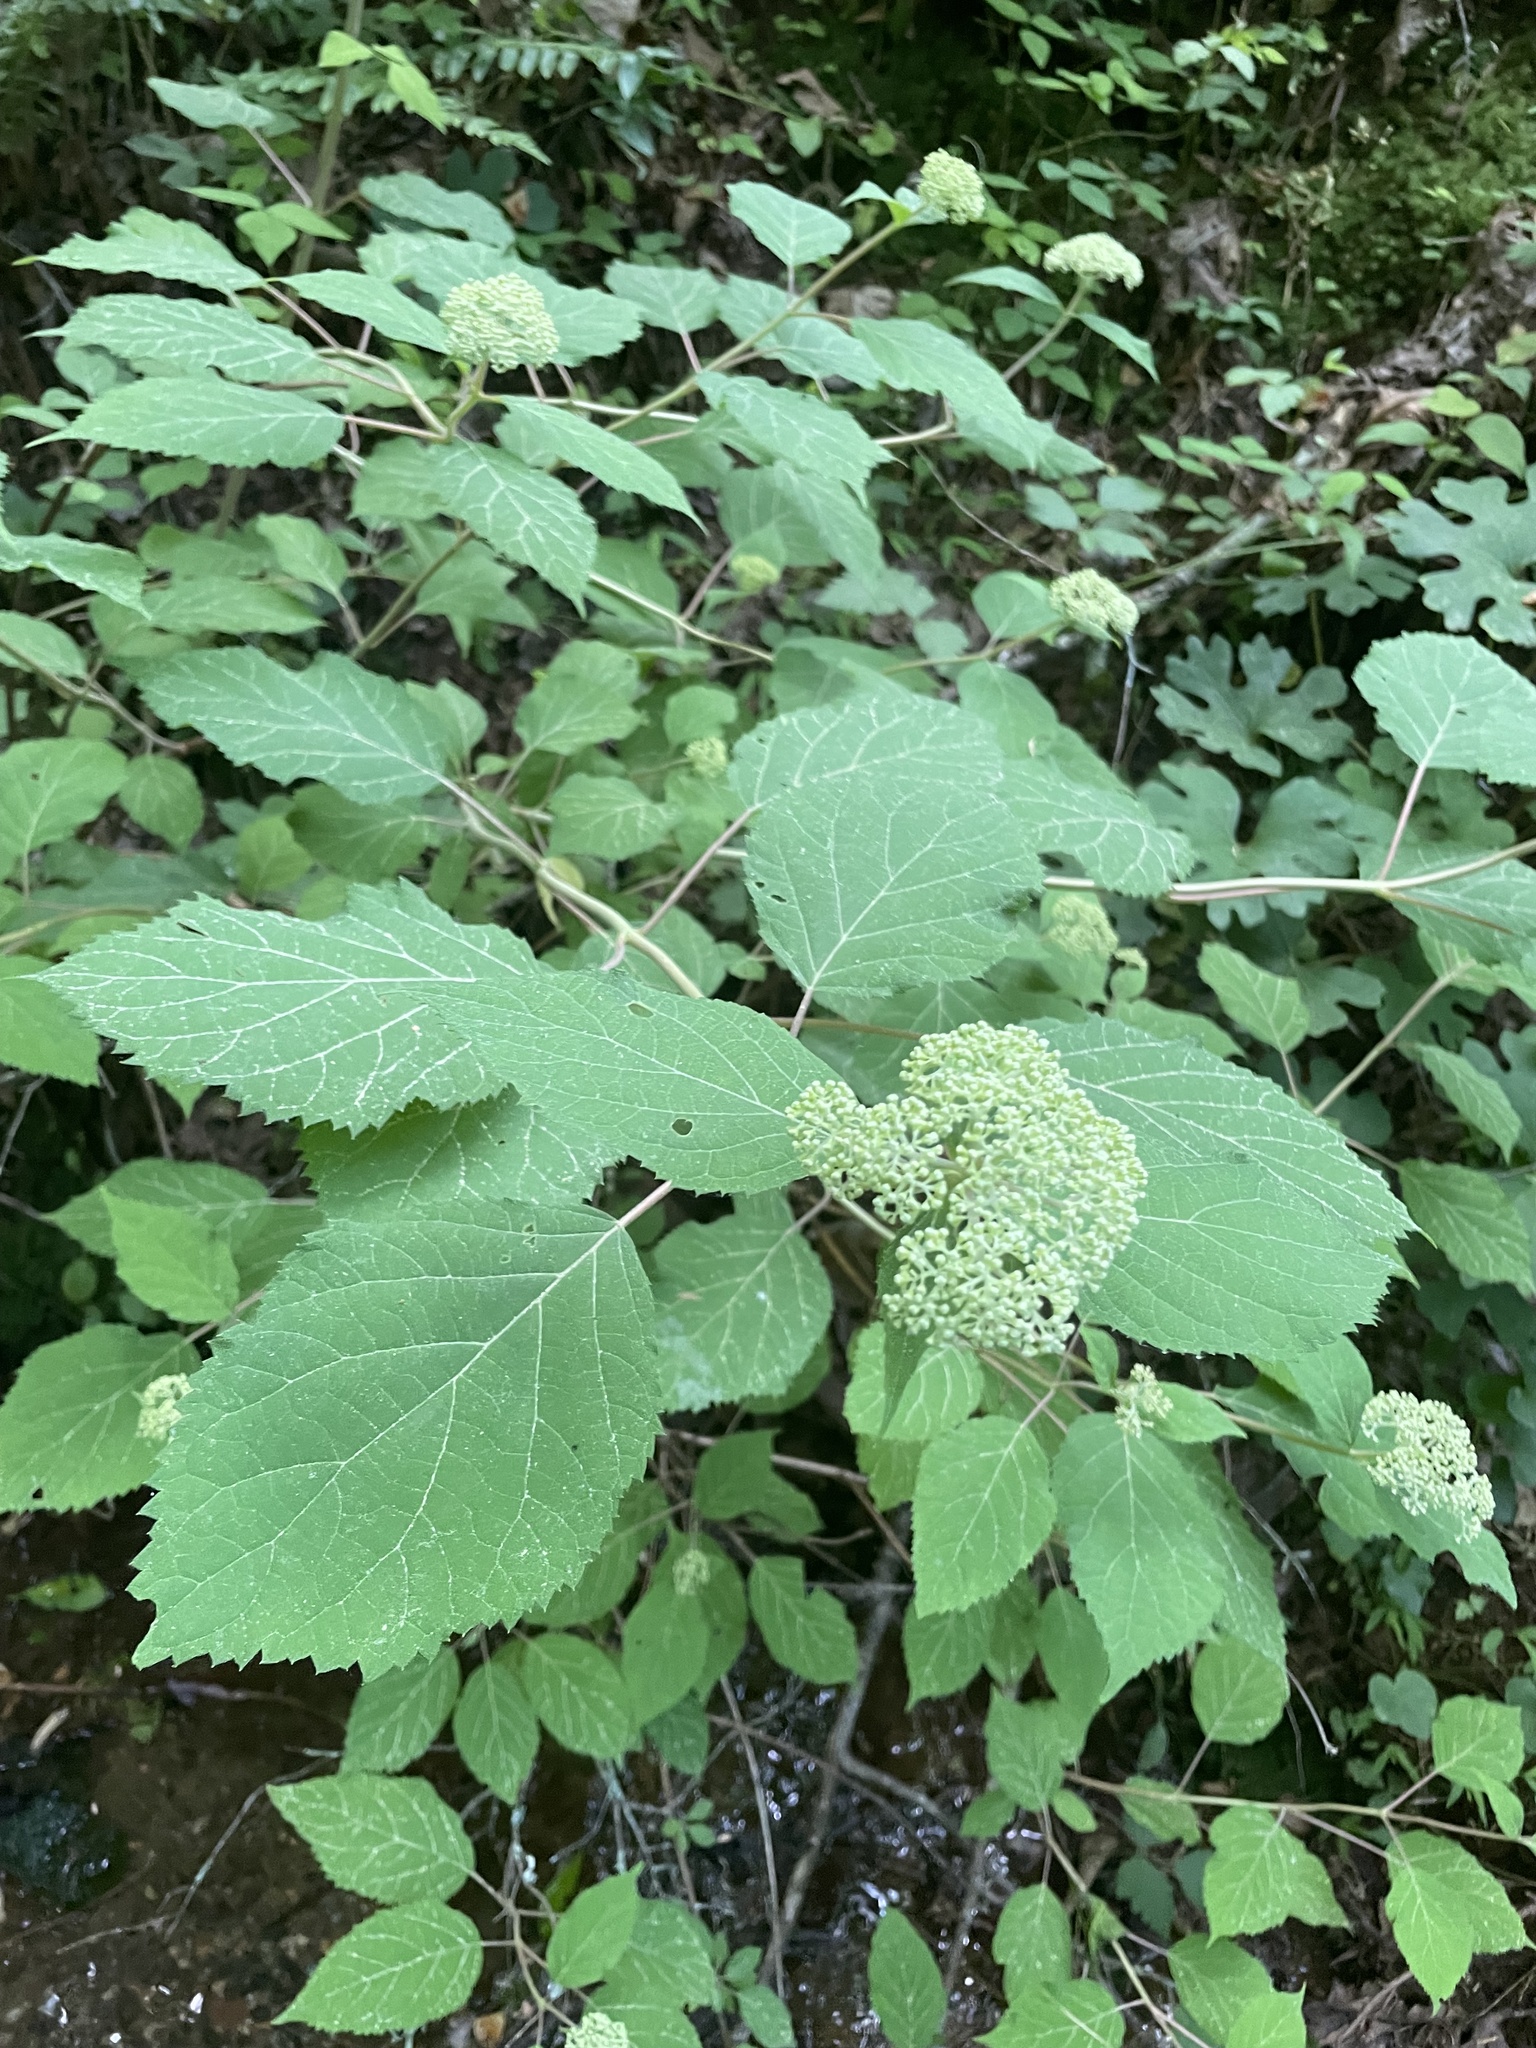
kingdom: Plantae
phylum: Tracheophyta
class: Magnoliopsida
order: Cornales
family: Hydrangeaceae
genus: Hydrangea
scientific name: Hydrangea arborescens
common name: Sevenbark
